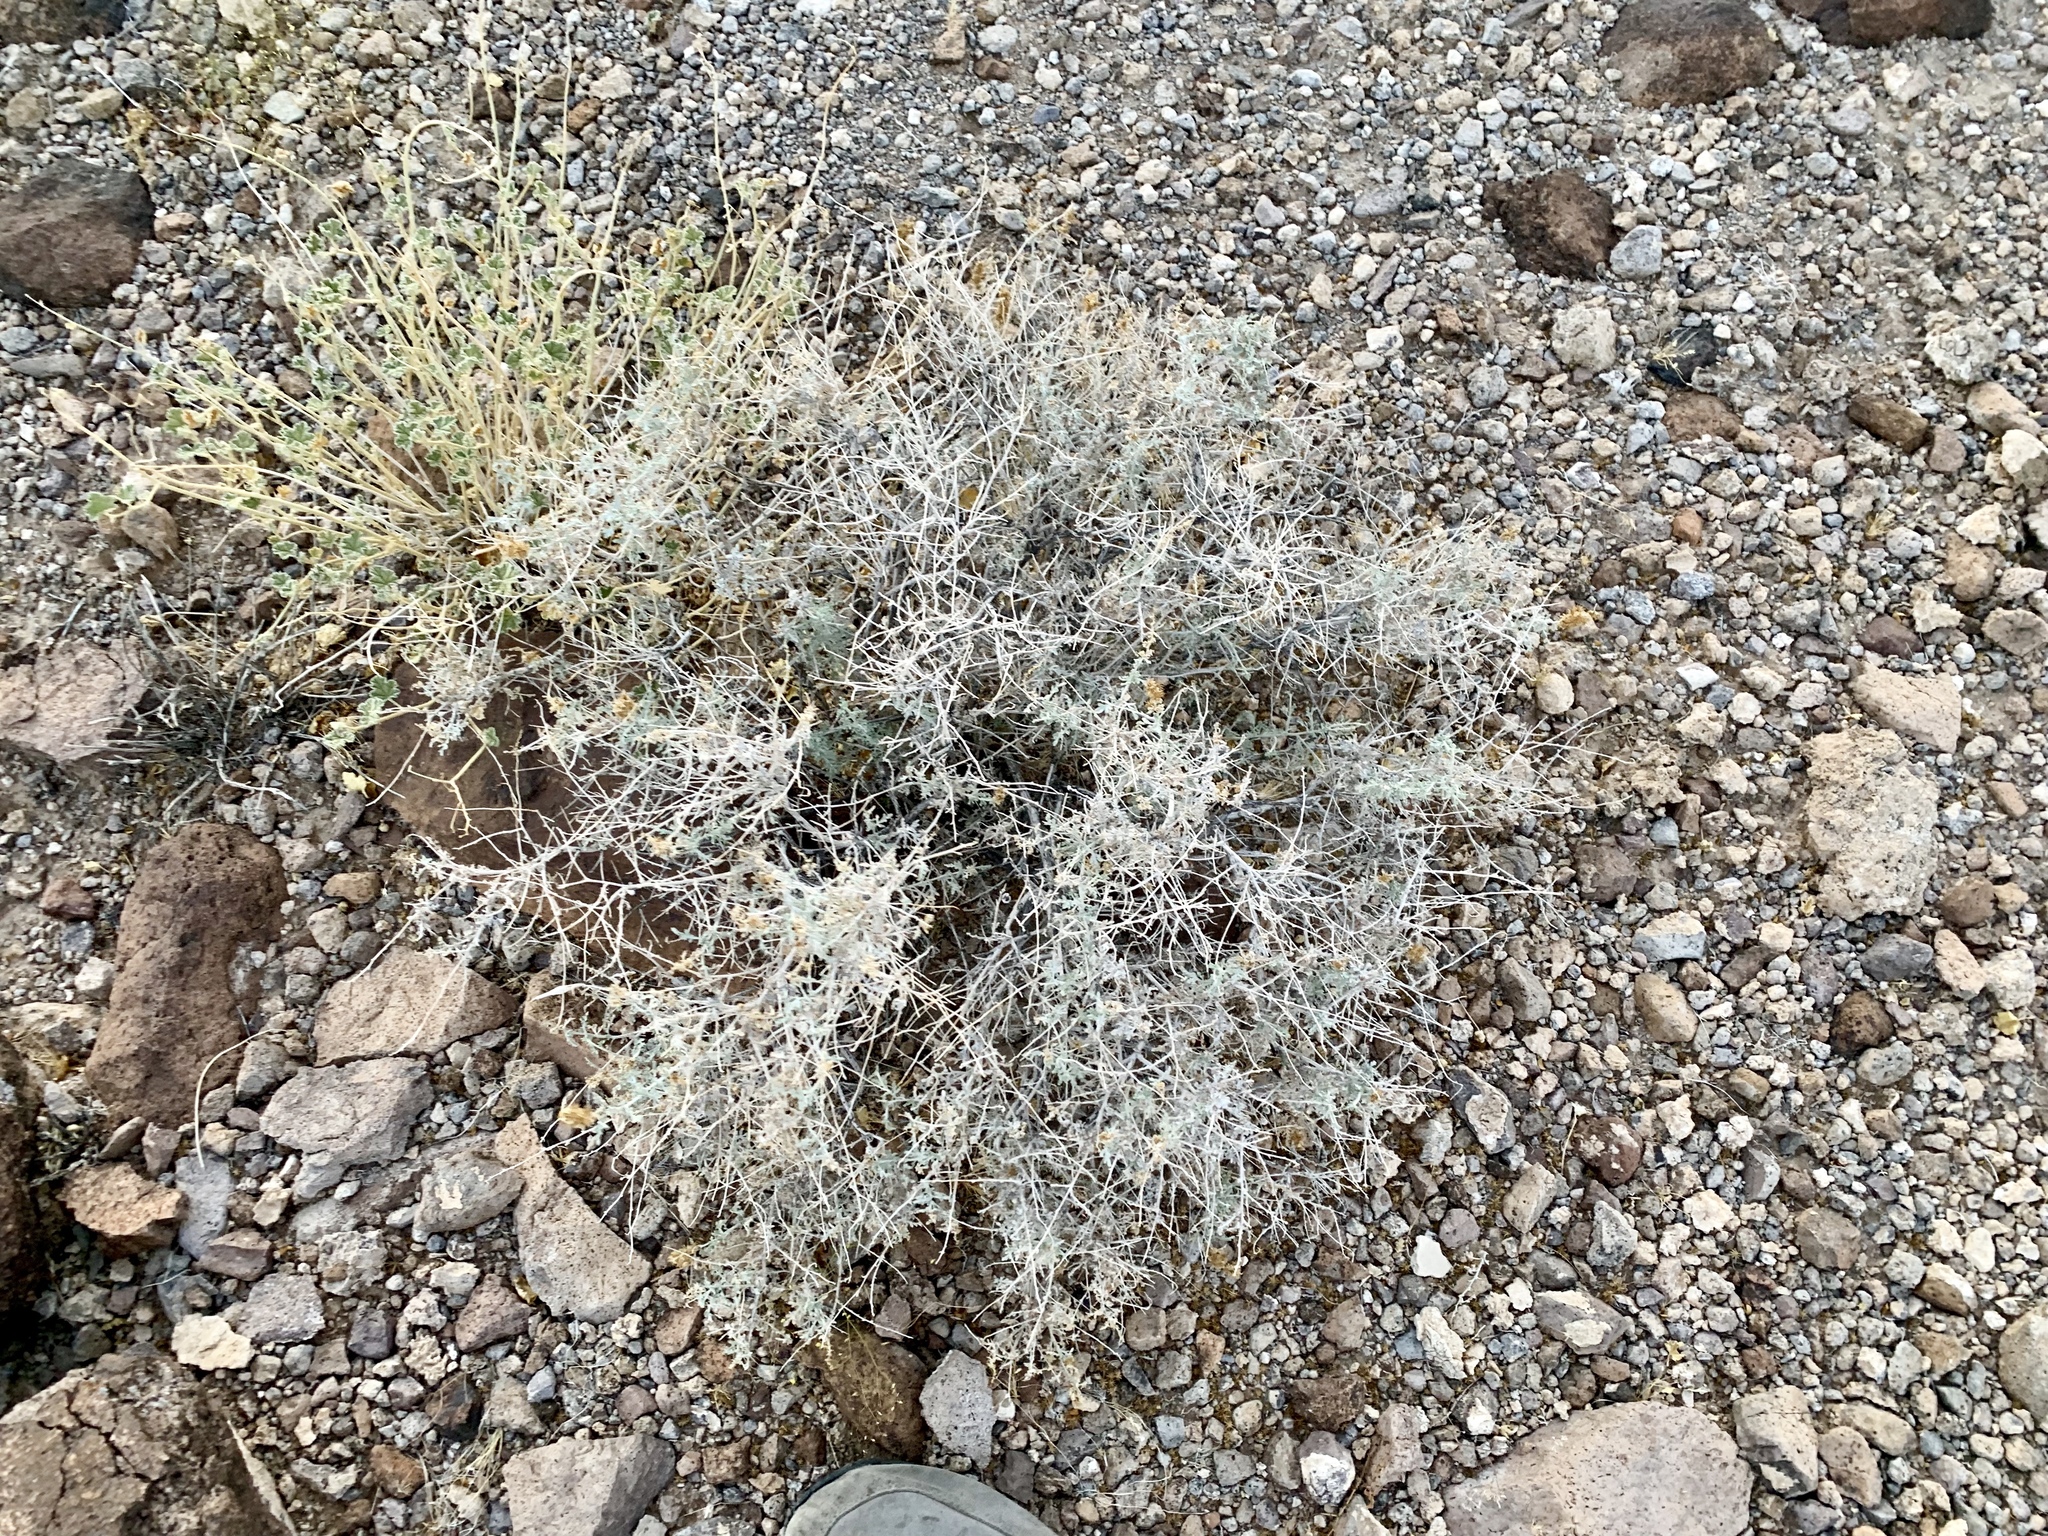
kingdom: Plantae
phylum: Tracheophyta
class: Magnoliopsida
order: Asterales
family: Asteraceae
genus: Ambrosia
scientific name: Ambrosia dumosa
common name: Bur-sage
